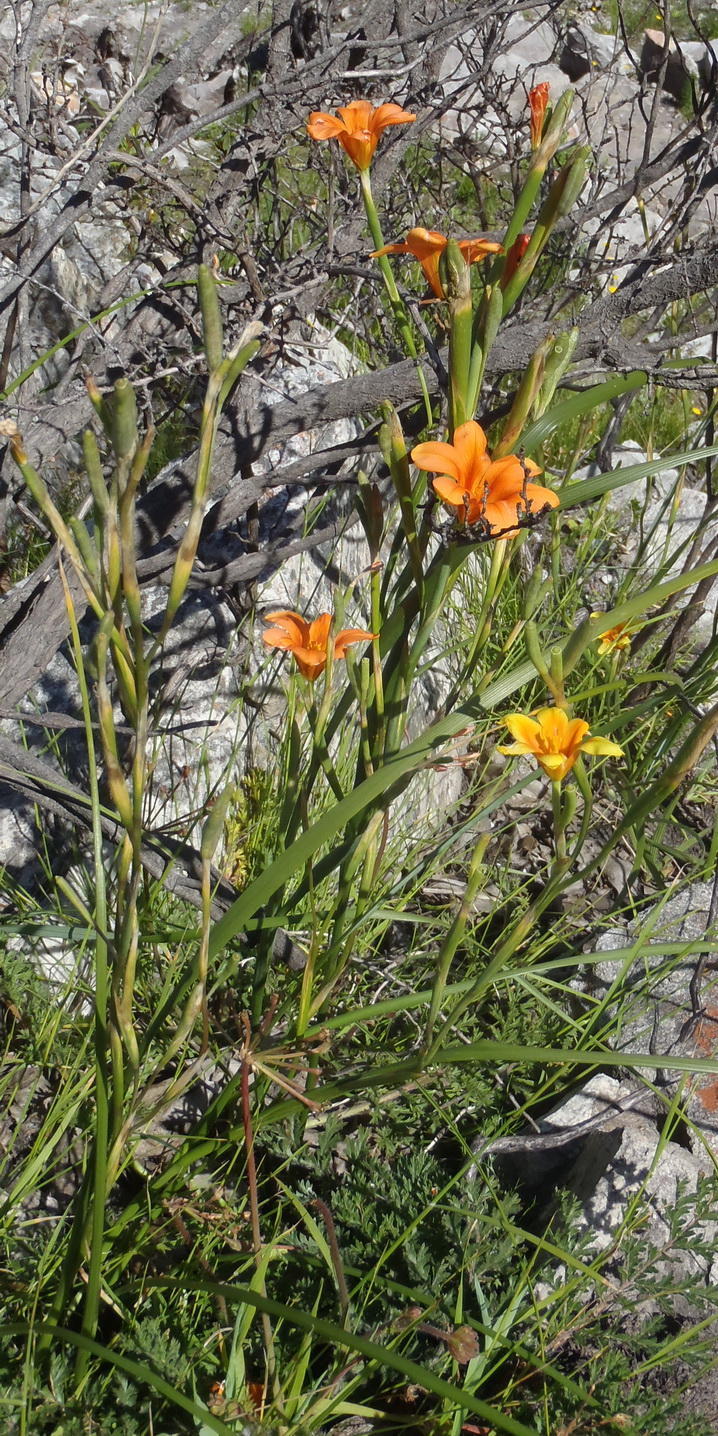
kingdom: Plantae
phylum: Tracheophyta
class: Liliopsida
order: Asparagales
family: Iridaceae
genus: Moraea
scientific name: Moraea ochroleuca
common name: Red tulp
